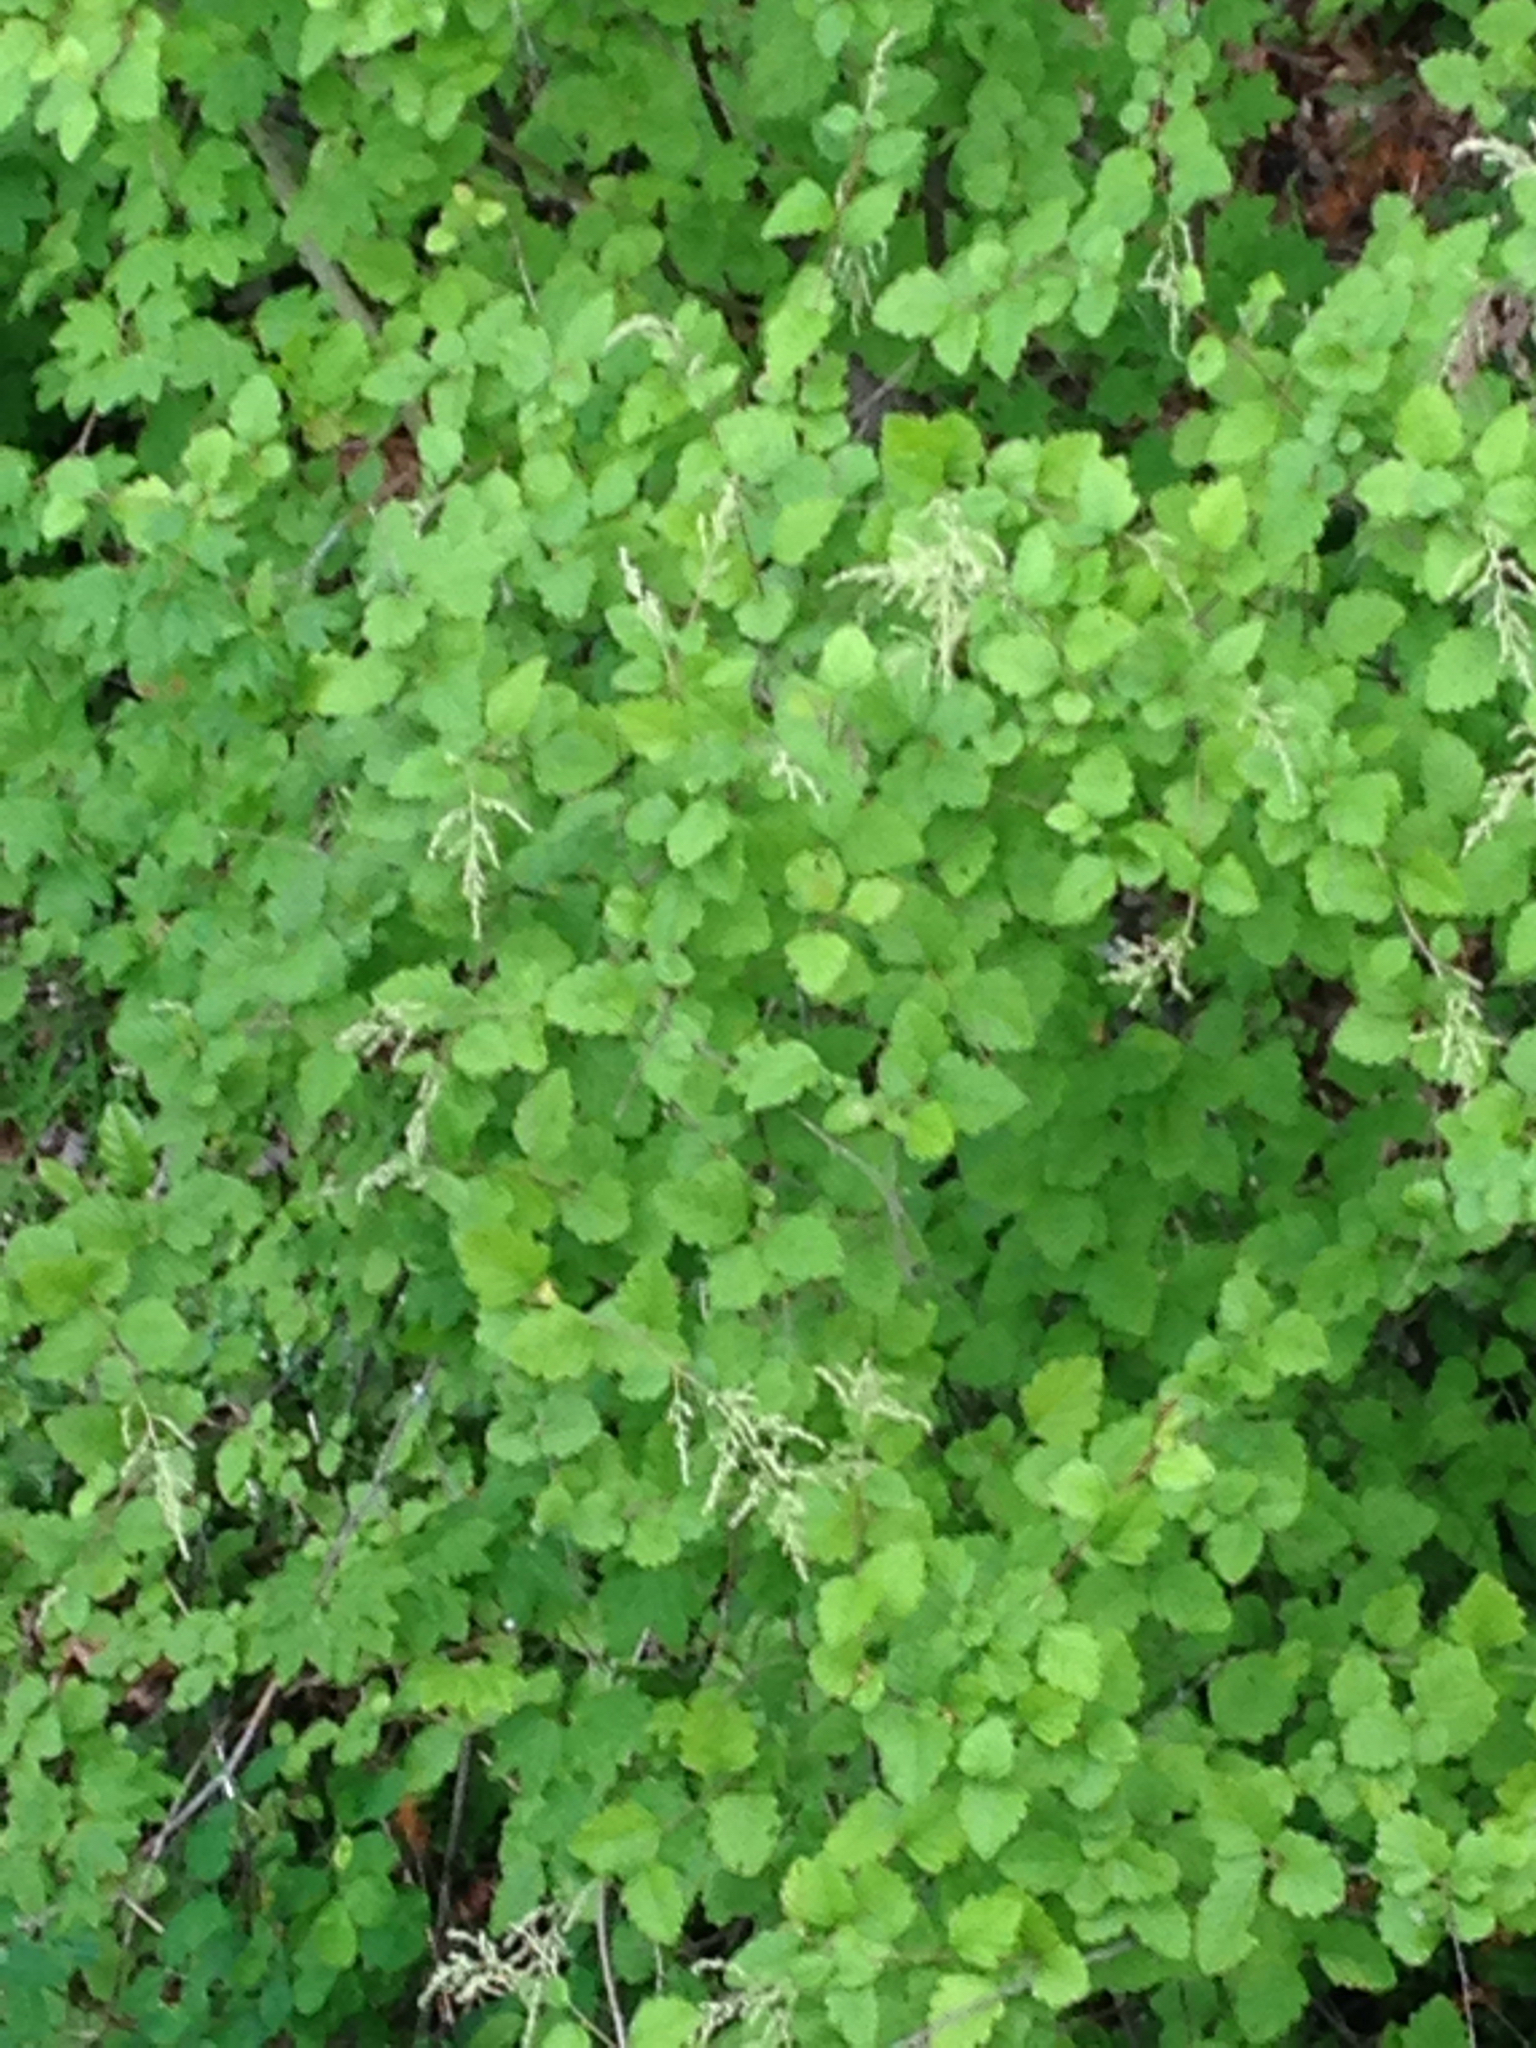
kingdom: Plantae
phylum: Tracheophyta
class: Magnoliopsida
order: Rosales
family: Rosaceae
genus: Holodiscus
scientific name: Holodiscus discolor
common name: Oceanspray
